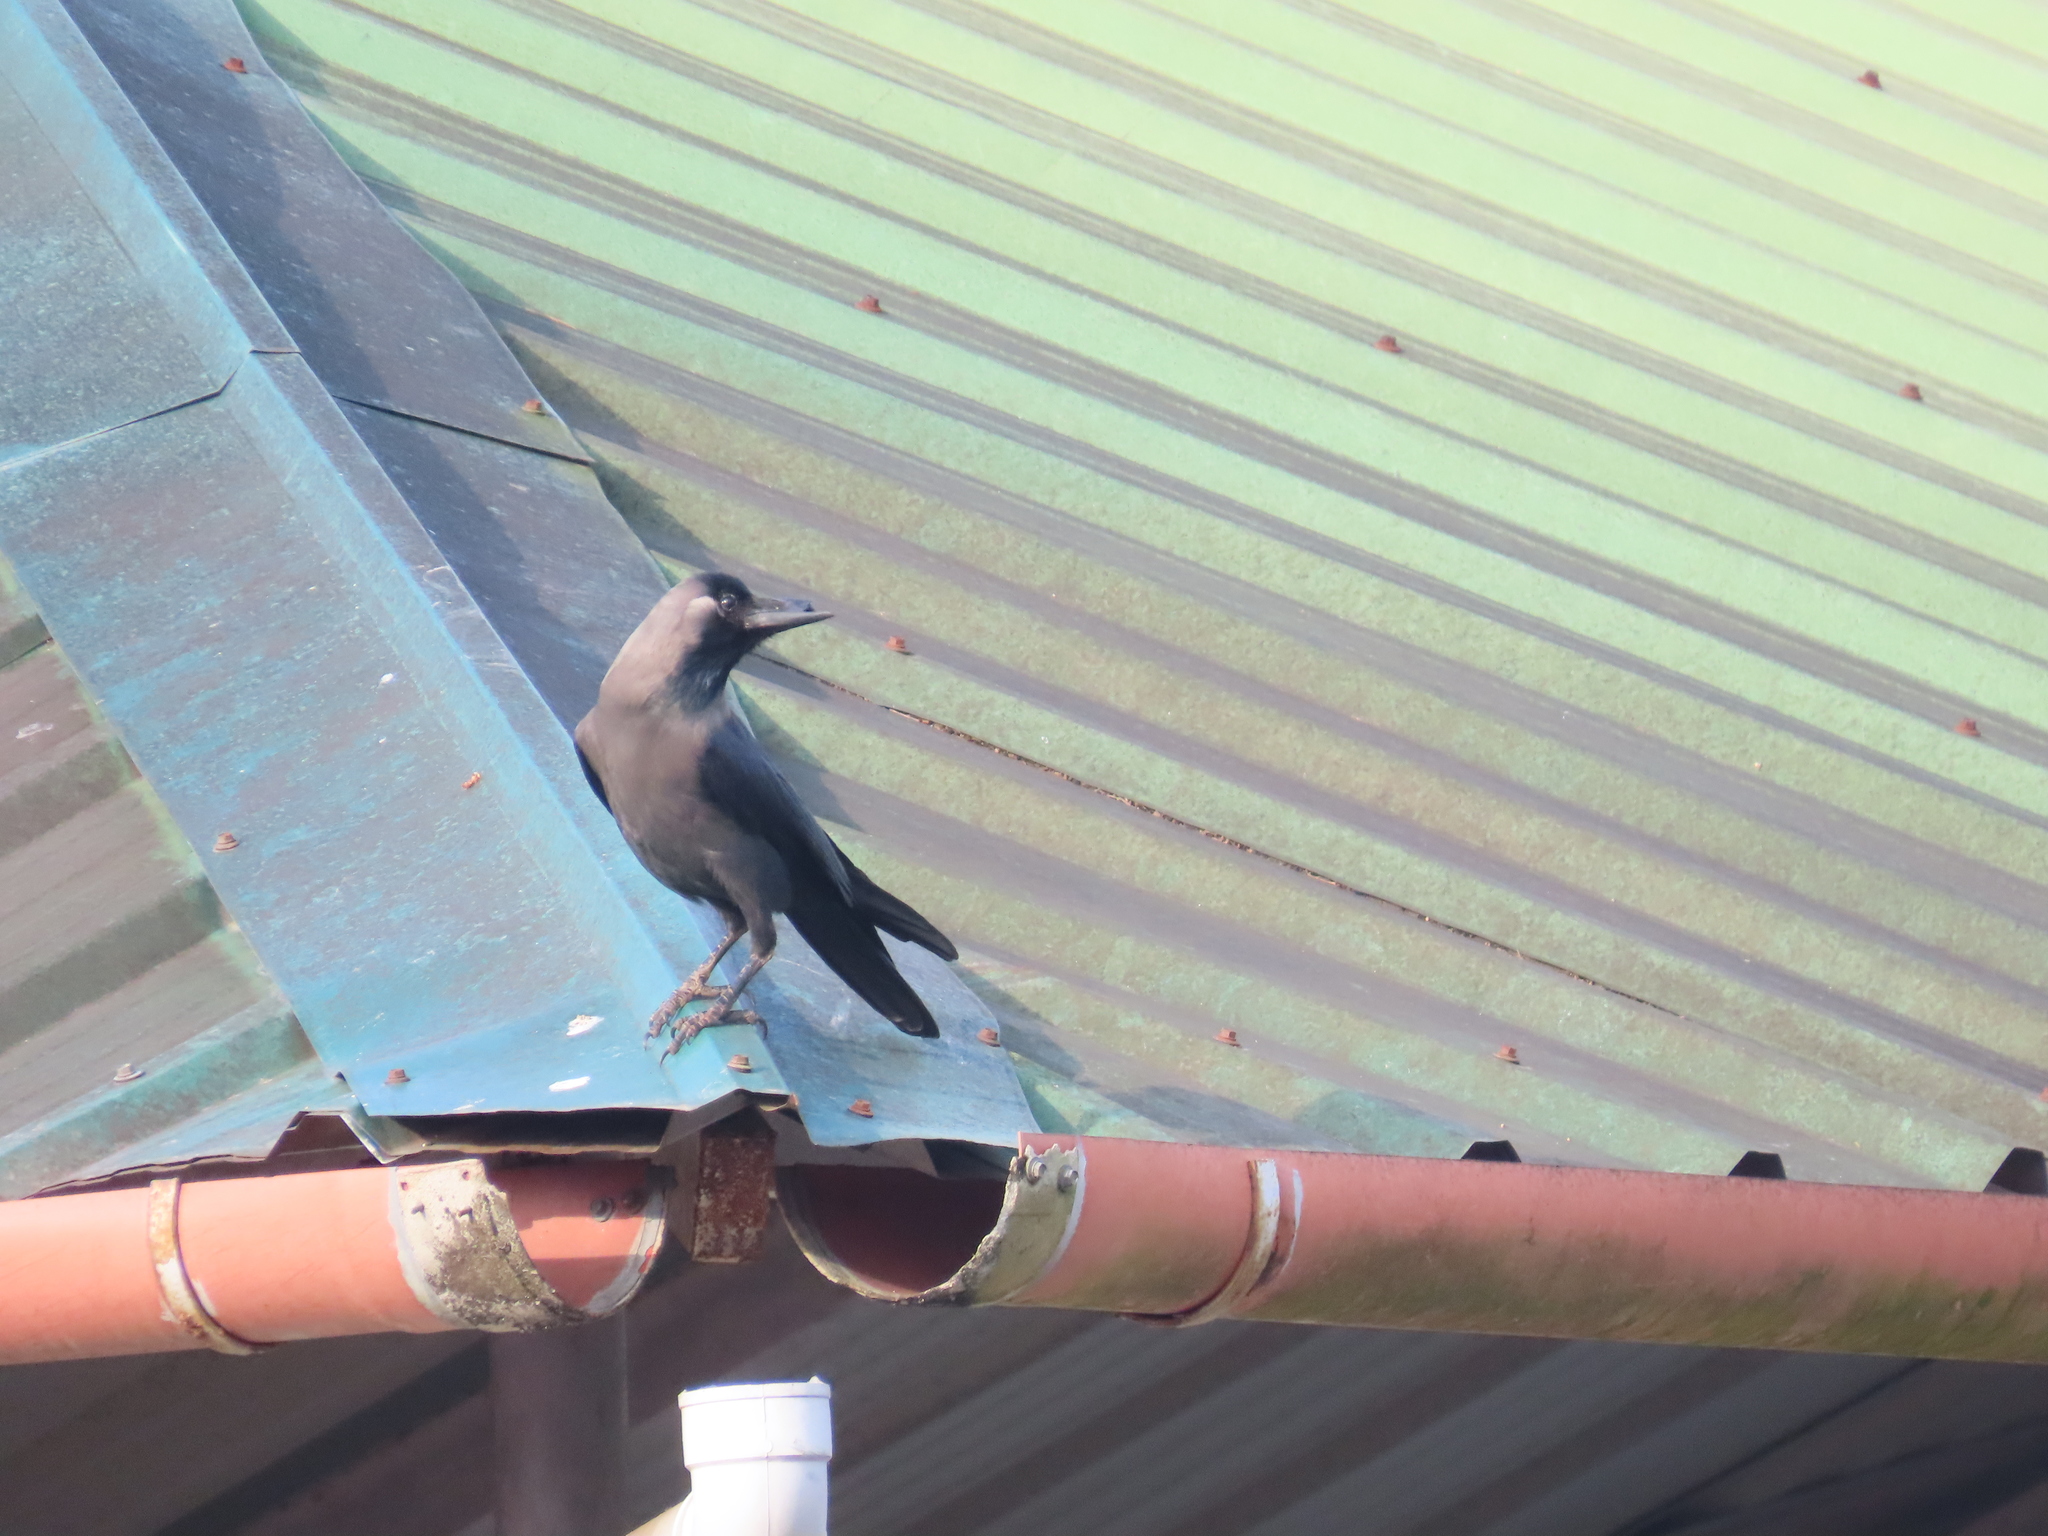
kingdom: Animalia
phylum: Chordata
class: Aves
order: Passeriformes
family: Corvidae
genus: Corvus
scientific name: Corvus splendens
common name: House crow
